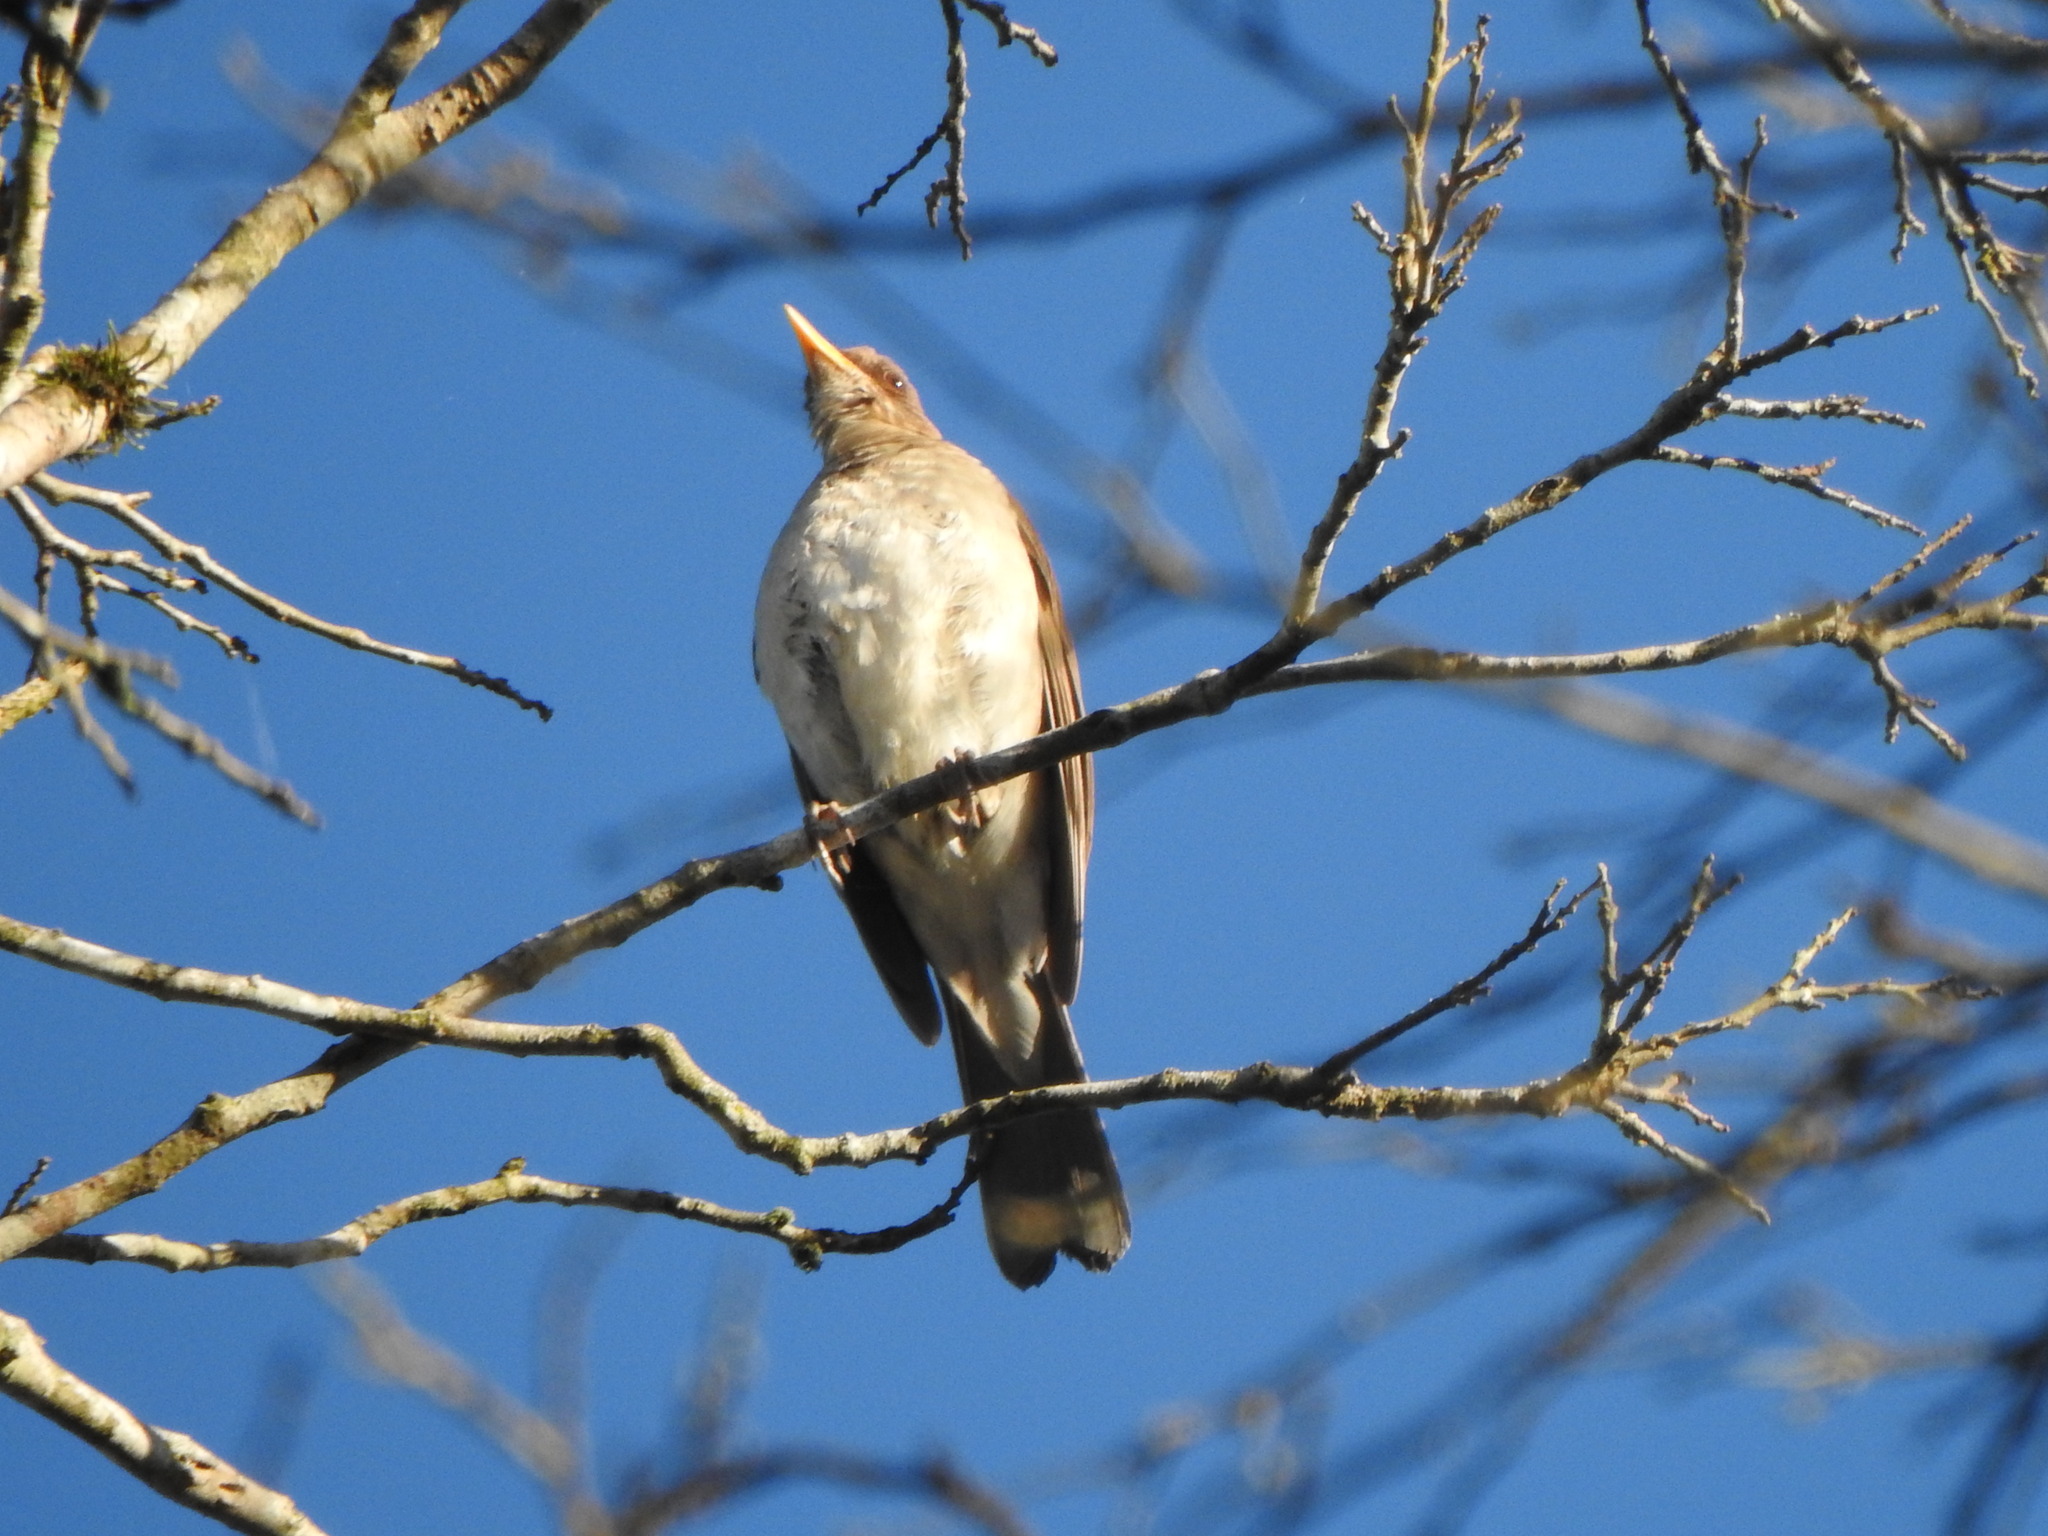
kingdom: Animalia
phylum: Chordata
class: Aves
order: Passeriformes
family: Turdidae
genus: Turdus
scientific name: Turdus amaurochalinus
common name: Creamy-bellied thrush
